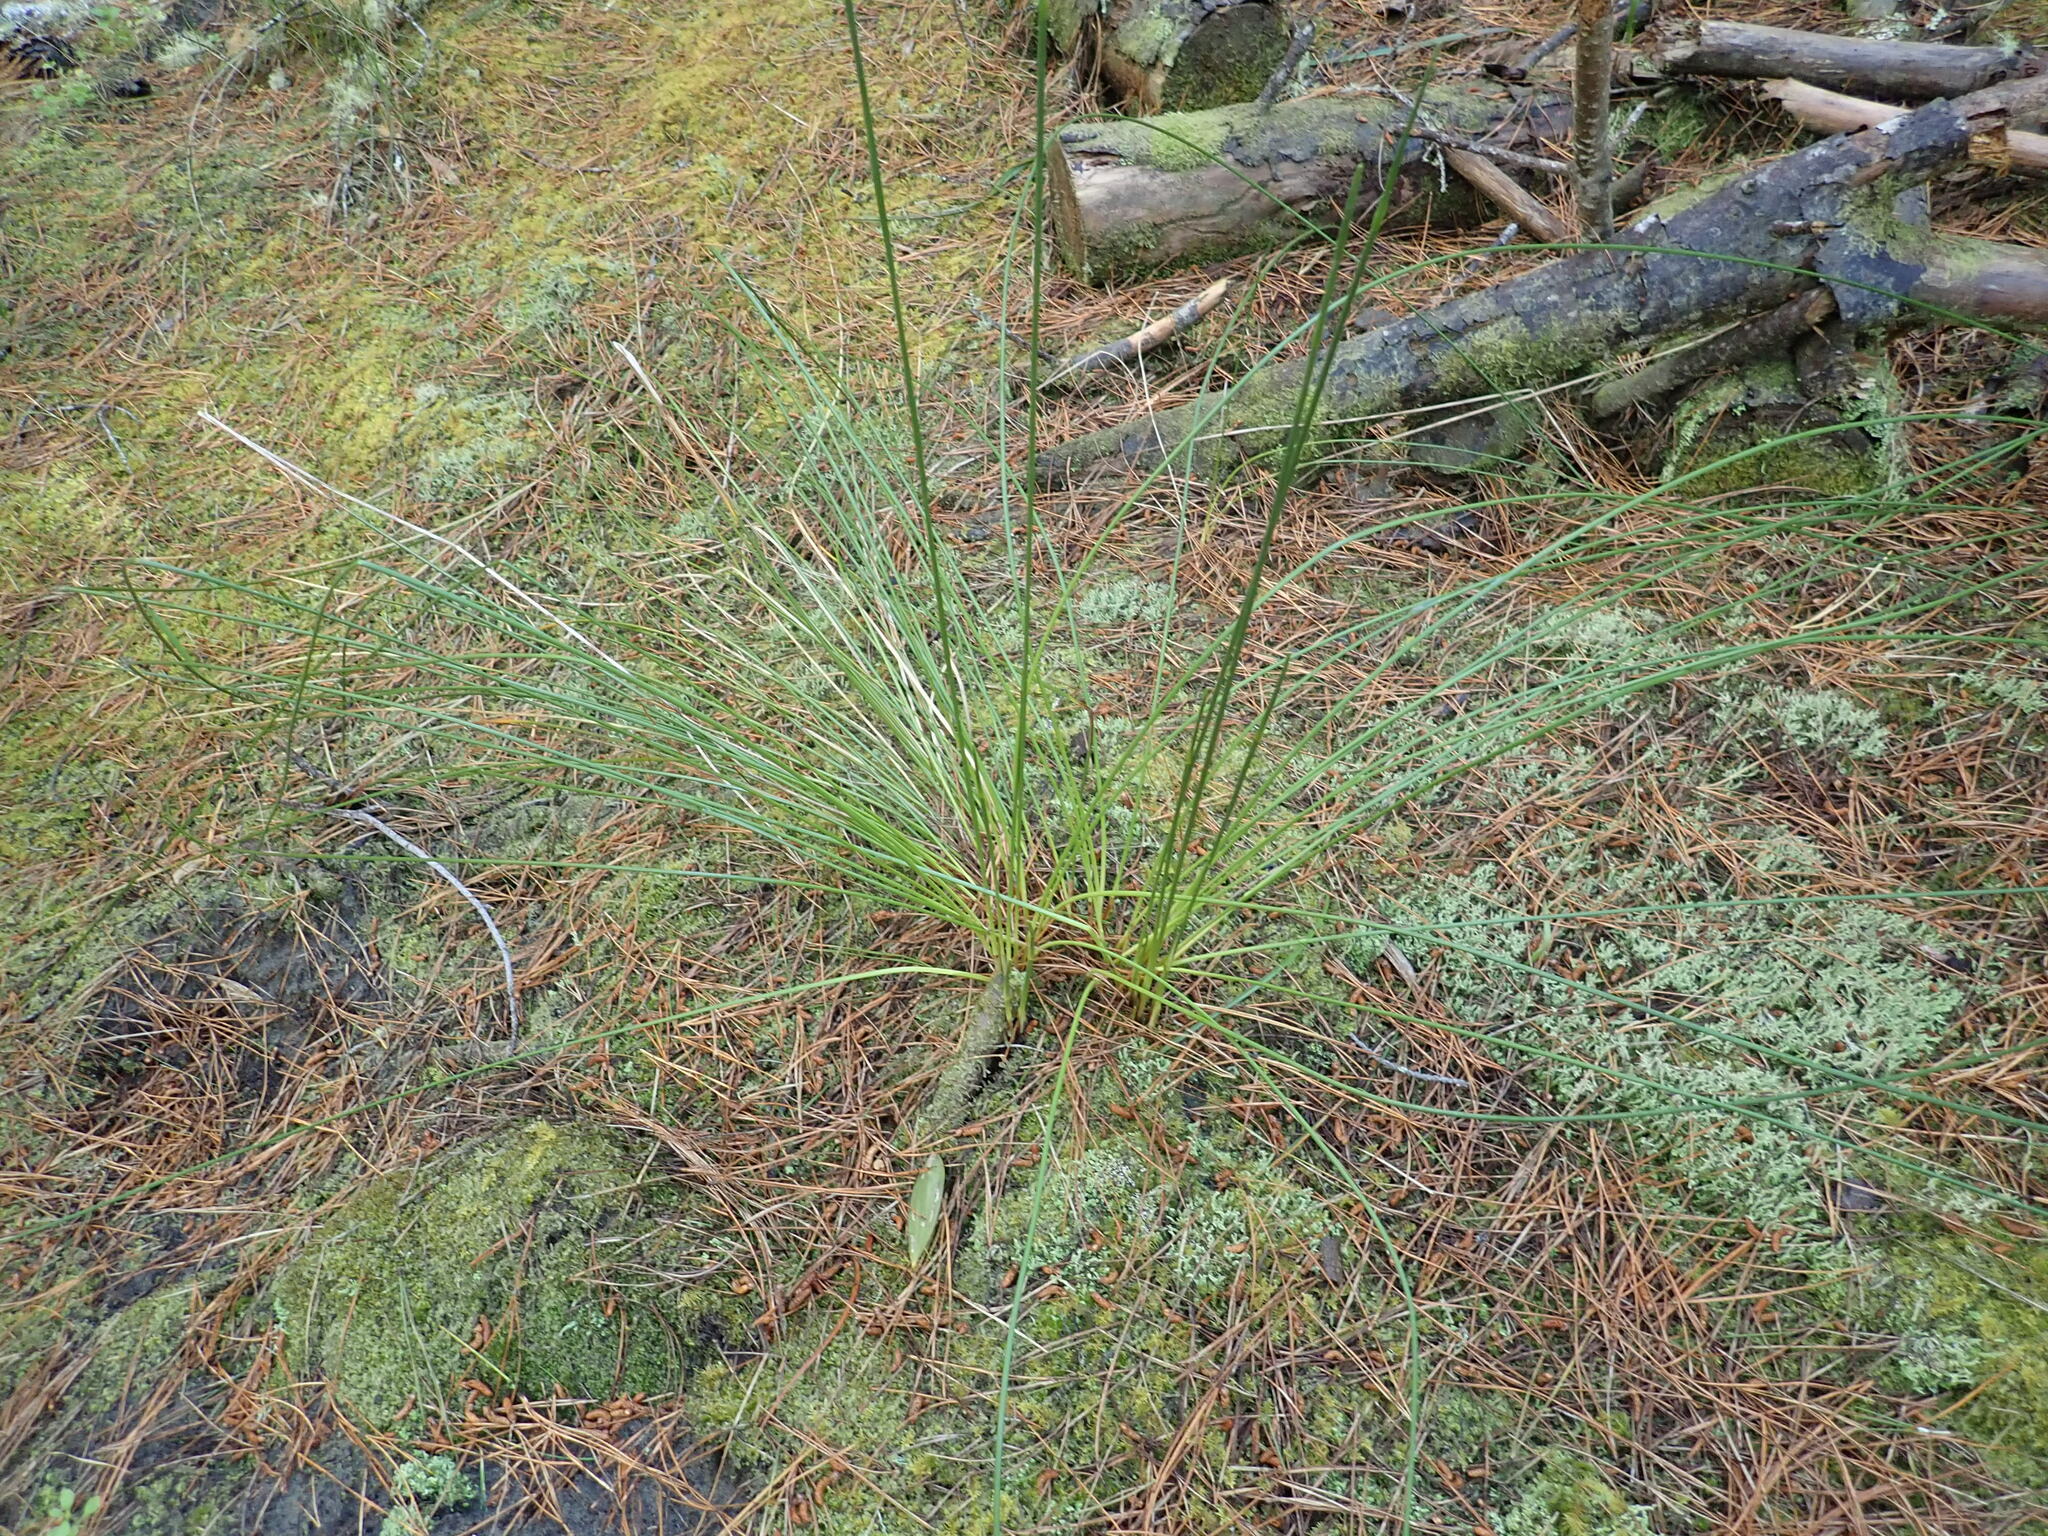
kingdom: Plantae
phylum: Tracheophyta
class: Liliopsida
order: Poales
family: Cyperaceae
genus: Ficinia
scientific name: Ficinia nodosa
